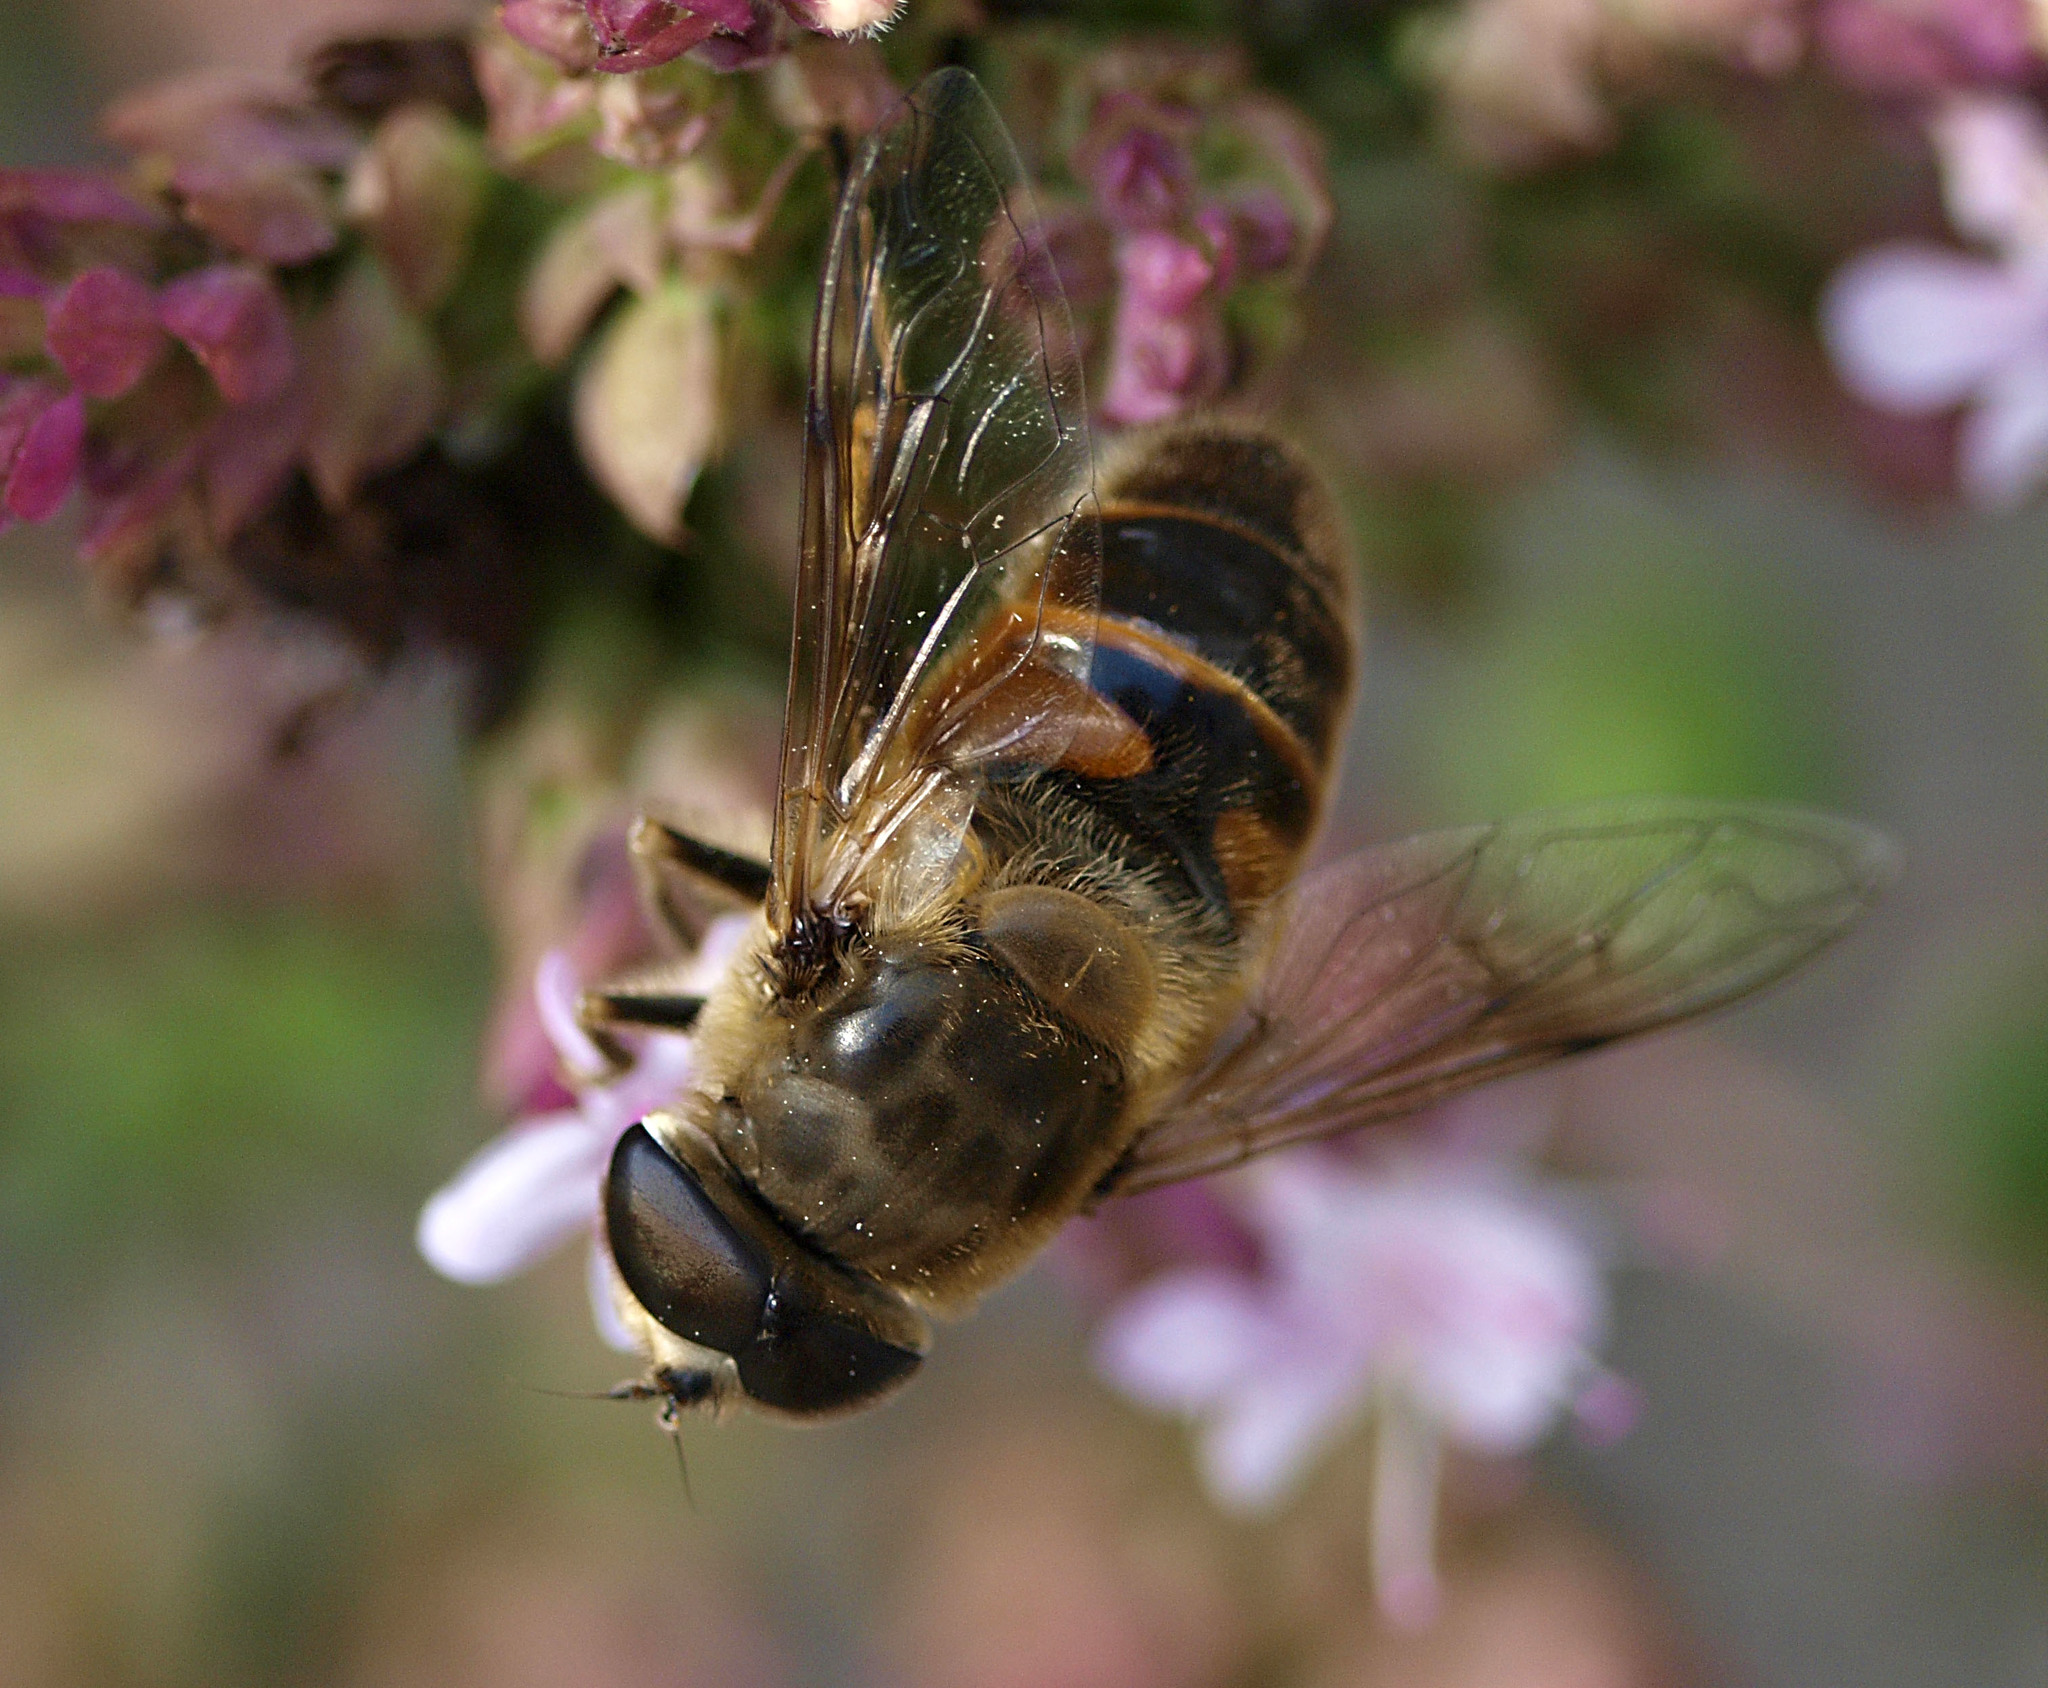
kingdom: Animalia
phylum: Arthropoda
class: Insecta
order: Diptera
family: Syrphidae
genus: Eristalis
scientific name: Eristalis tenax
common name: Drone fly
